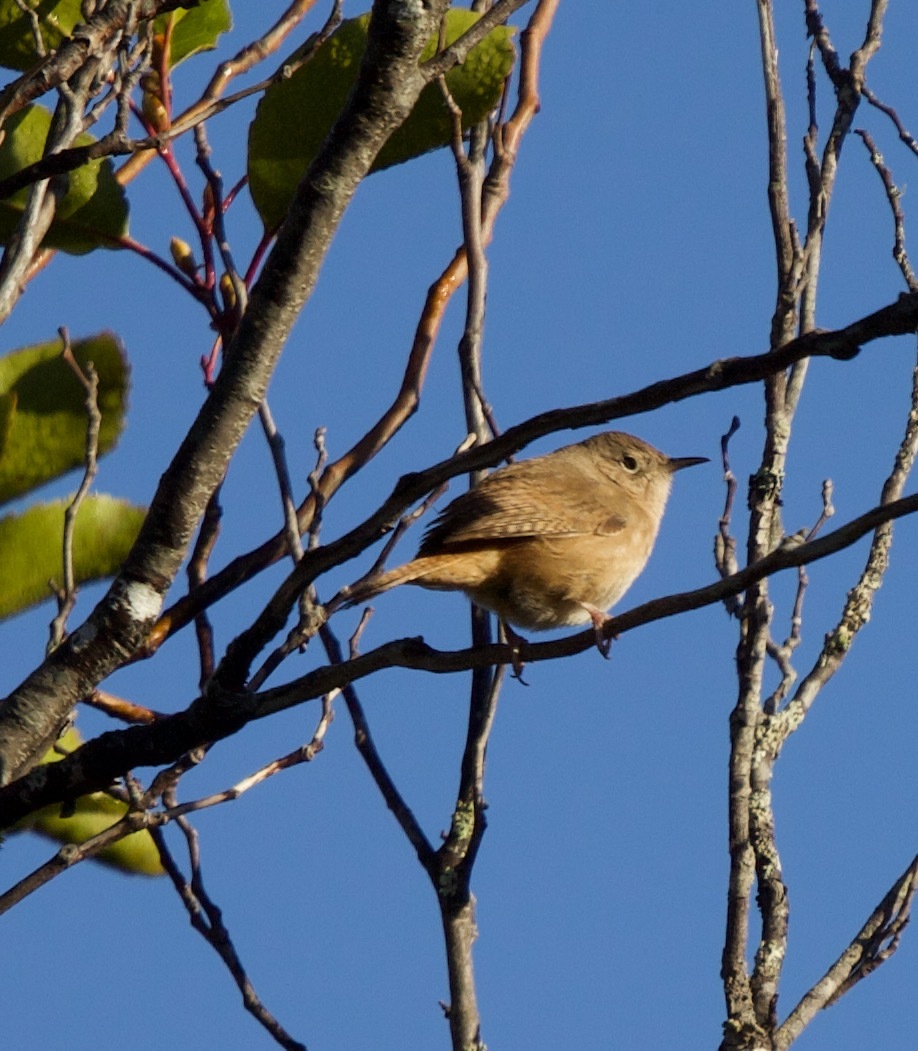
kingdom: Animalia
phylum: Chordata
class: Aves
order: Passeriformes
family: Troglodytidae
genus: Troglodytes
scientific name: Troglodytes aedon
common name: House wren
